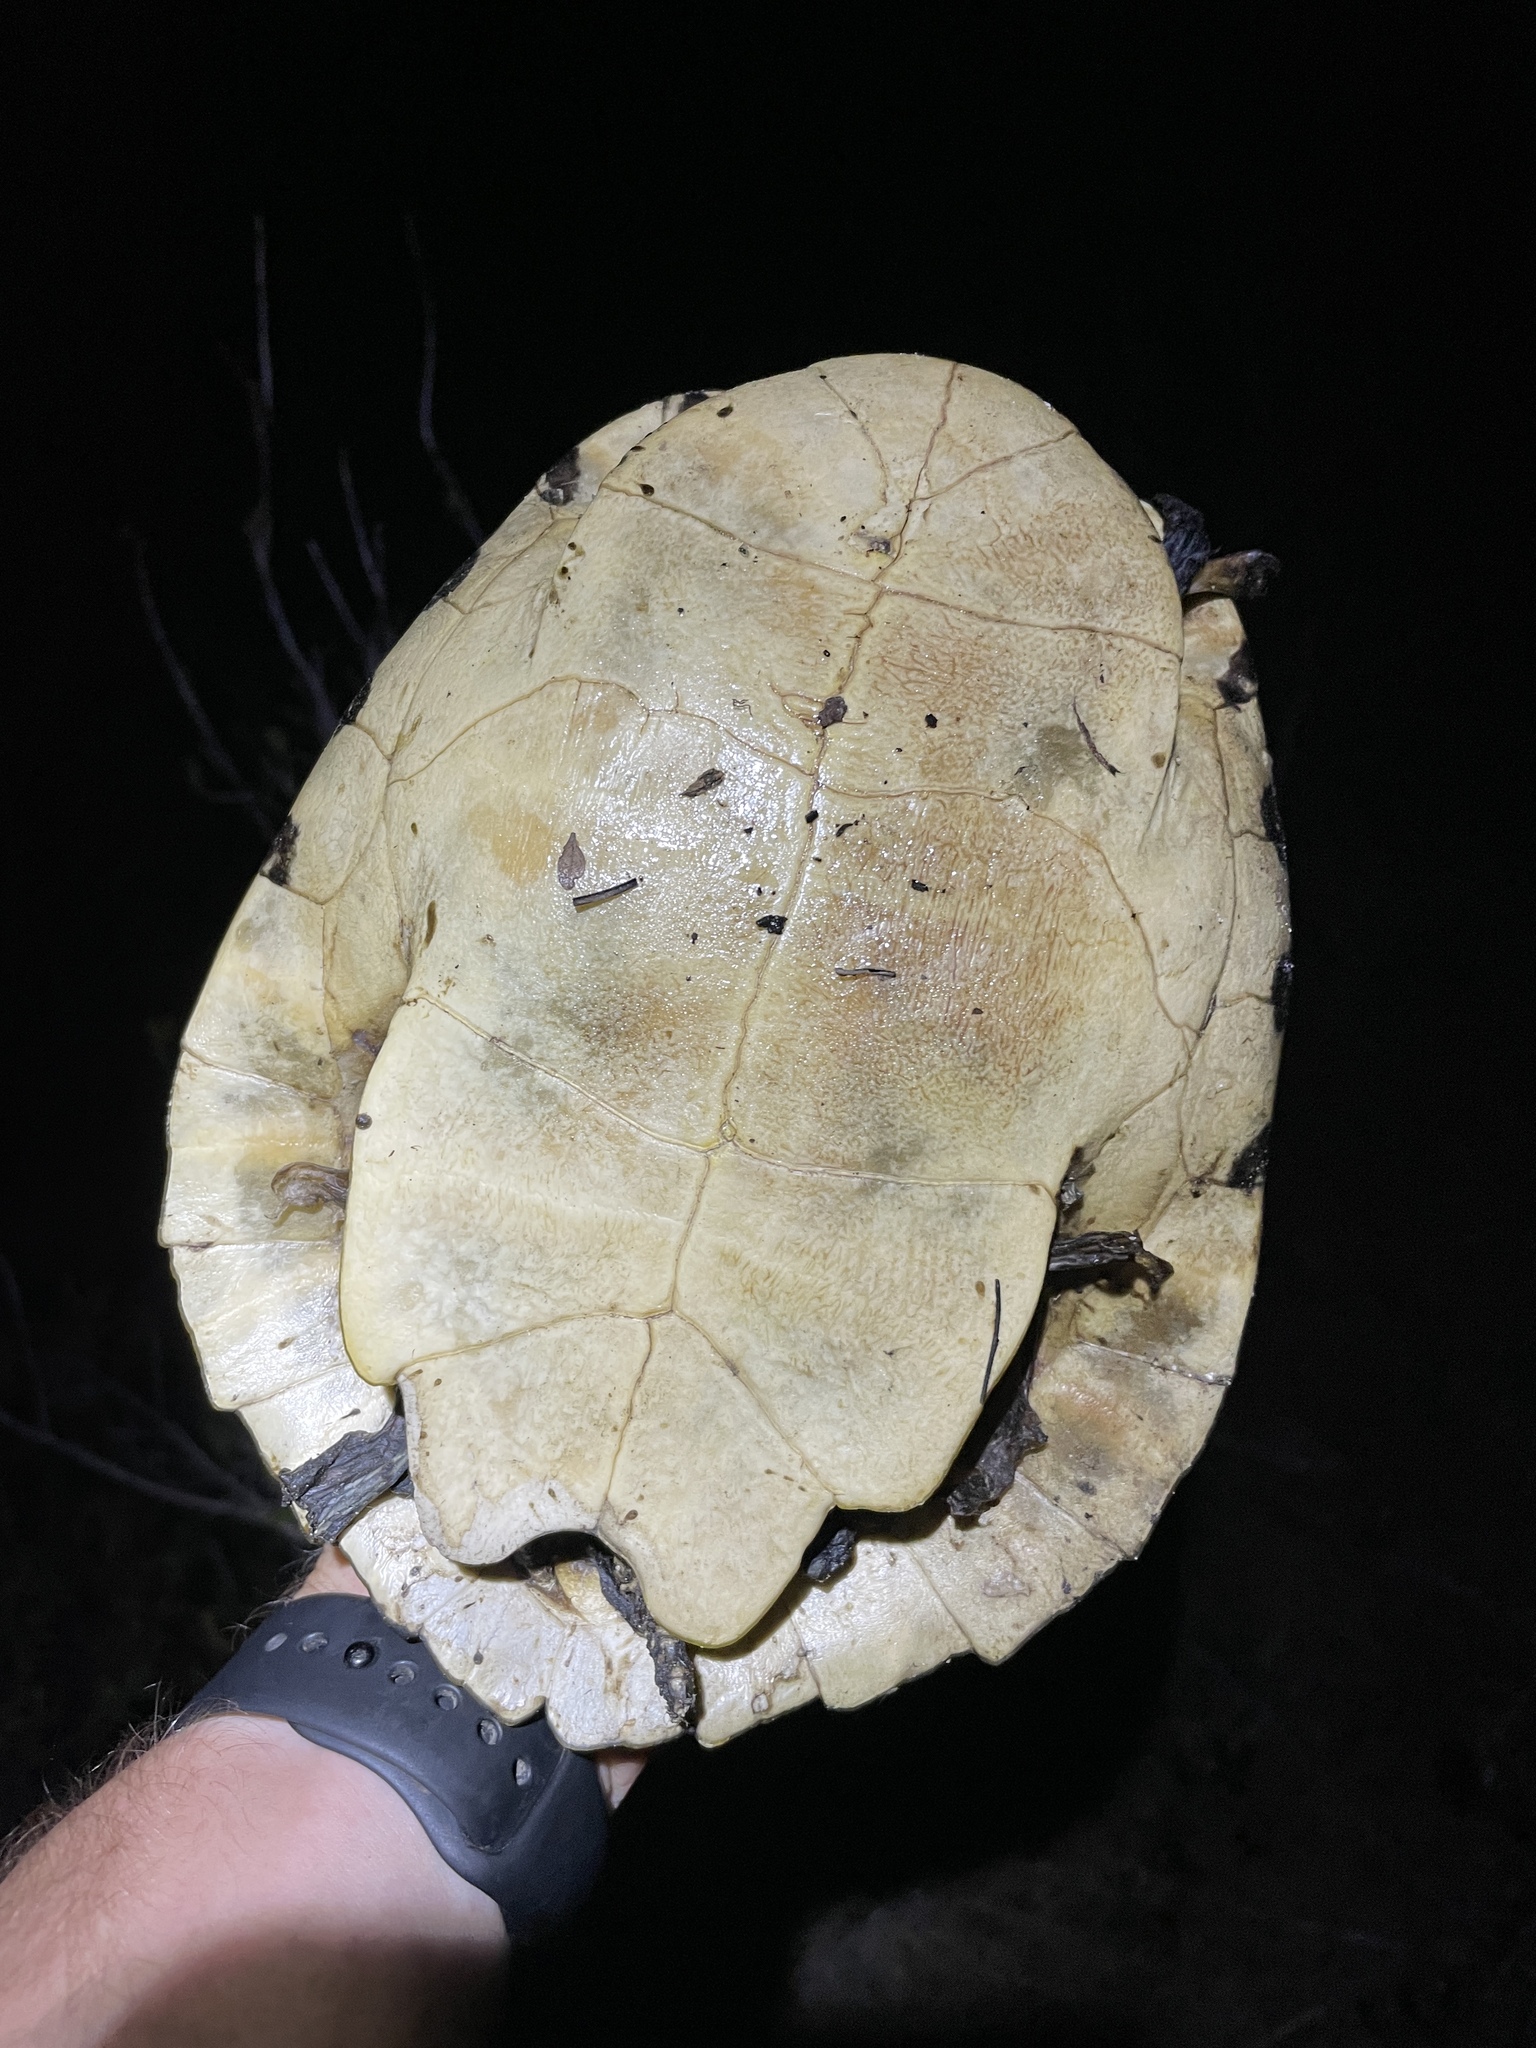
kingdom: Animalia
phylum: Chordata
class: Testudines
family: Emydidae
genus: Pseudemys
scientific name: Pseudemys concinna
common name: Eastern river cooter
